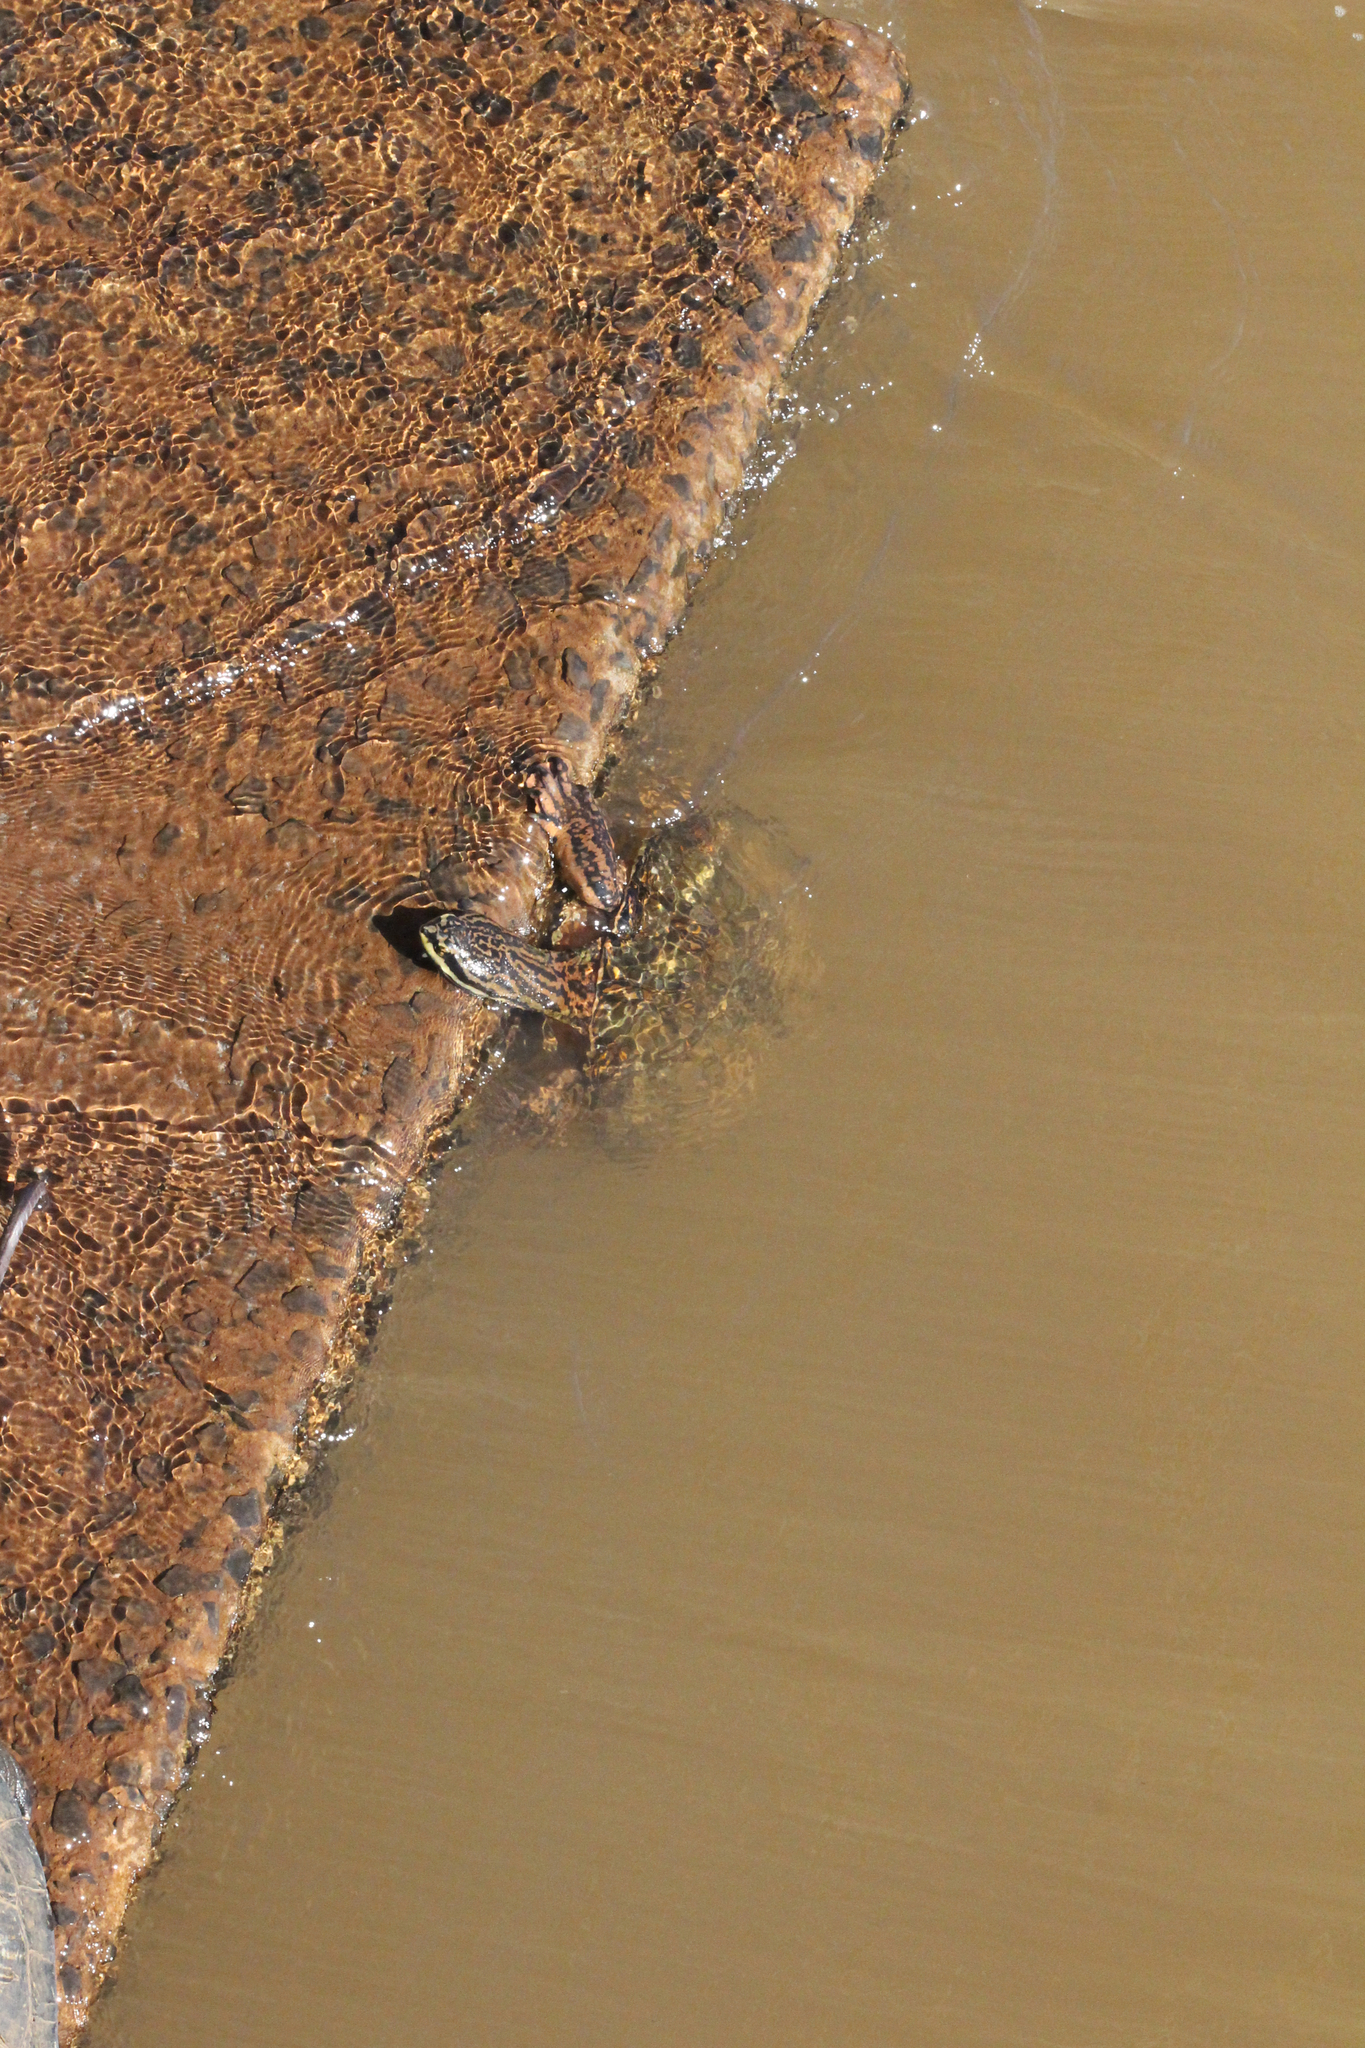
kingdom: Animalia
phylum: Chordata
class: Testudines
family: Chelidae
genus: Phrynops
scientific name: Phrynops williamsi
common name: Williams side-necked turtle
